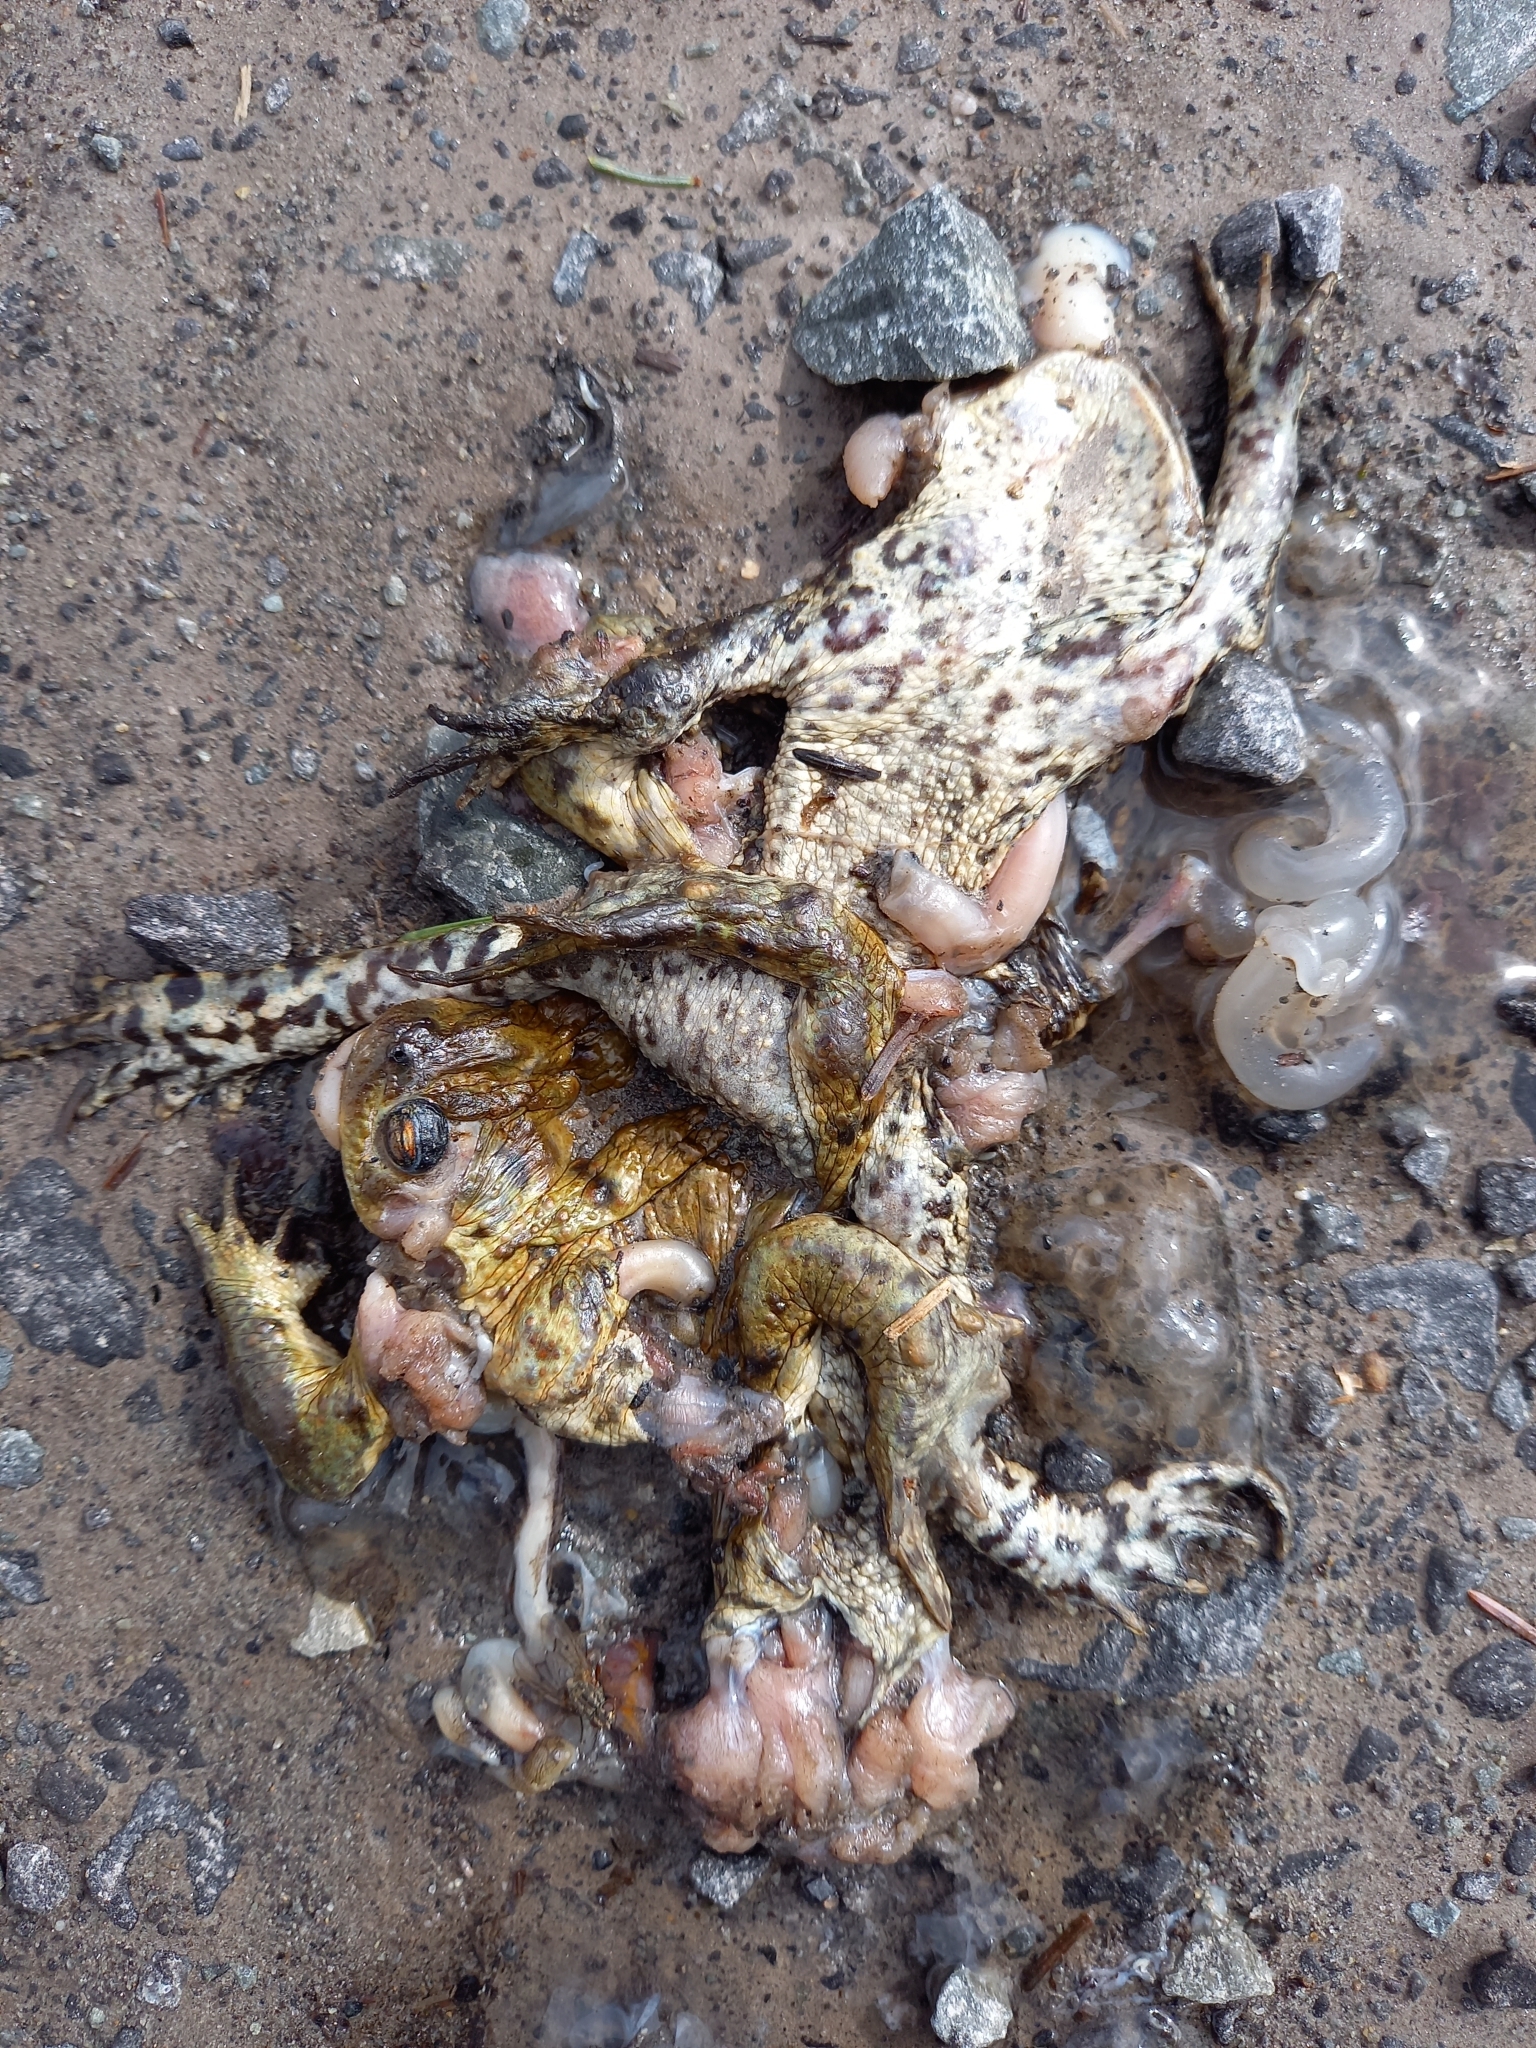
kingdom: Animalia
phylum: Chordata
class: Amphibia
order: Anura
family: Bufonidae
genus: Bufo
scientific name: Bufo bufo
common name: Common toad
